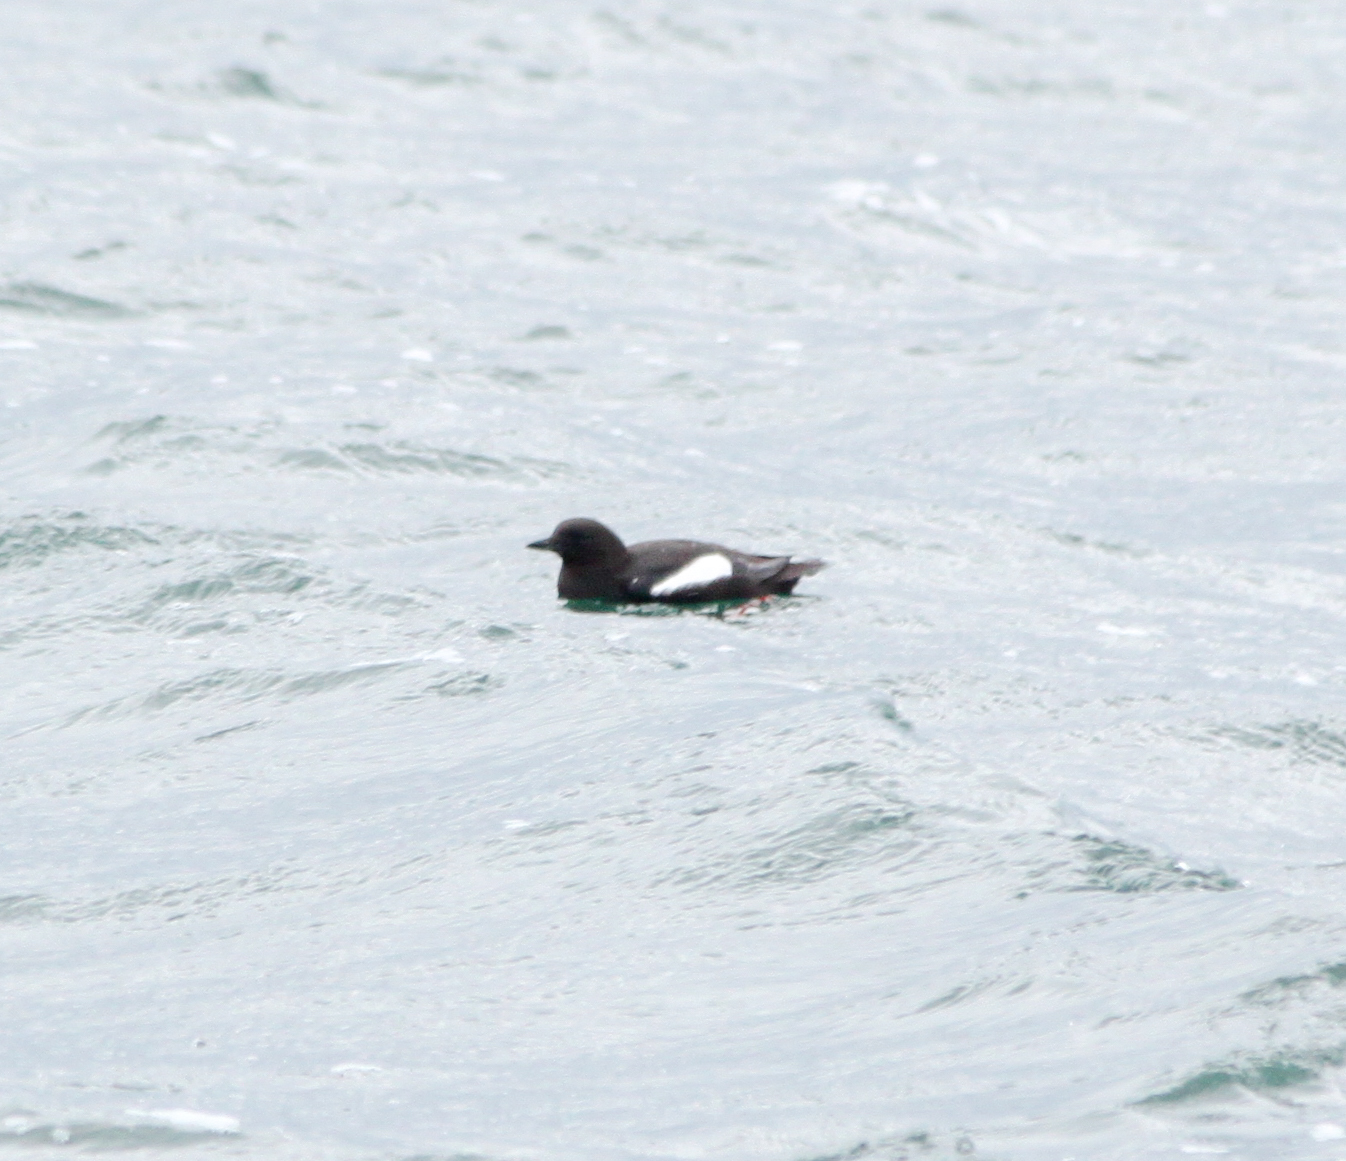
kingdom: Animalia
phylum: Chordata
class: Aves
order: Charadriiformes
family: Alcidae
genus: Cepphus
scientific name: Cepphus grylle
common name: Black guillemot
